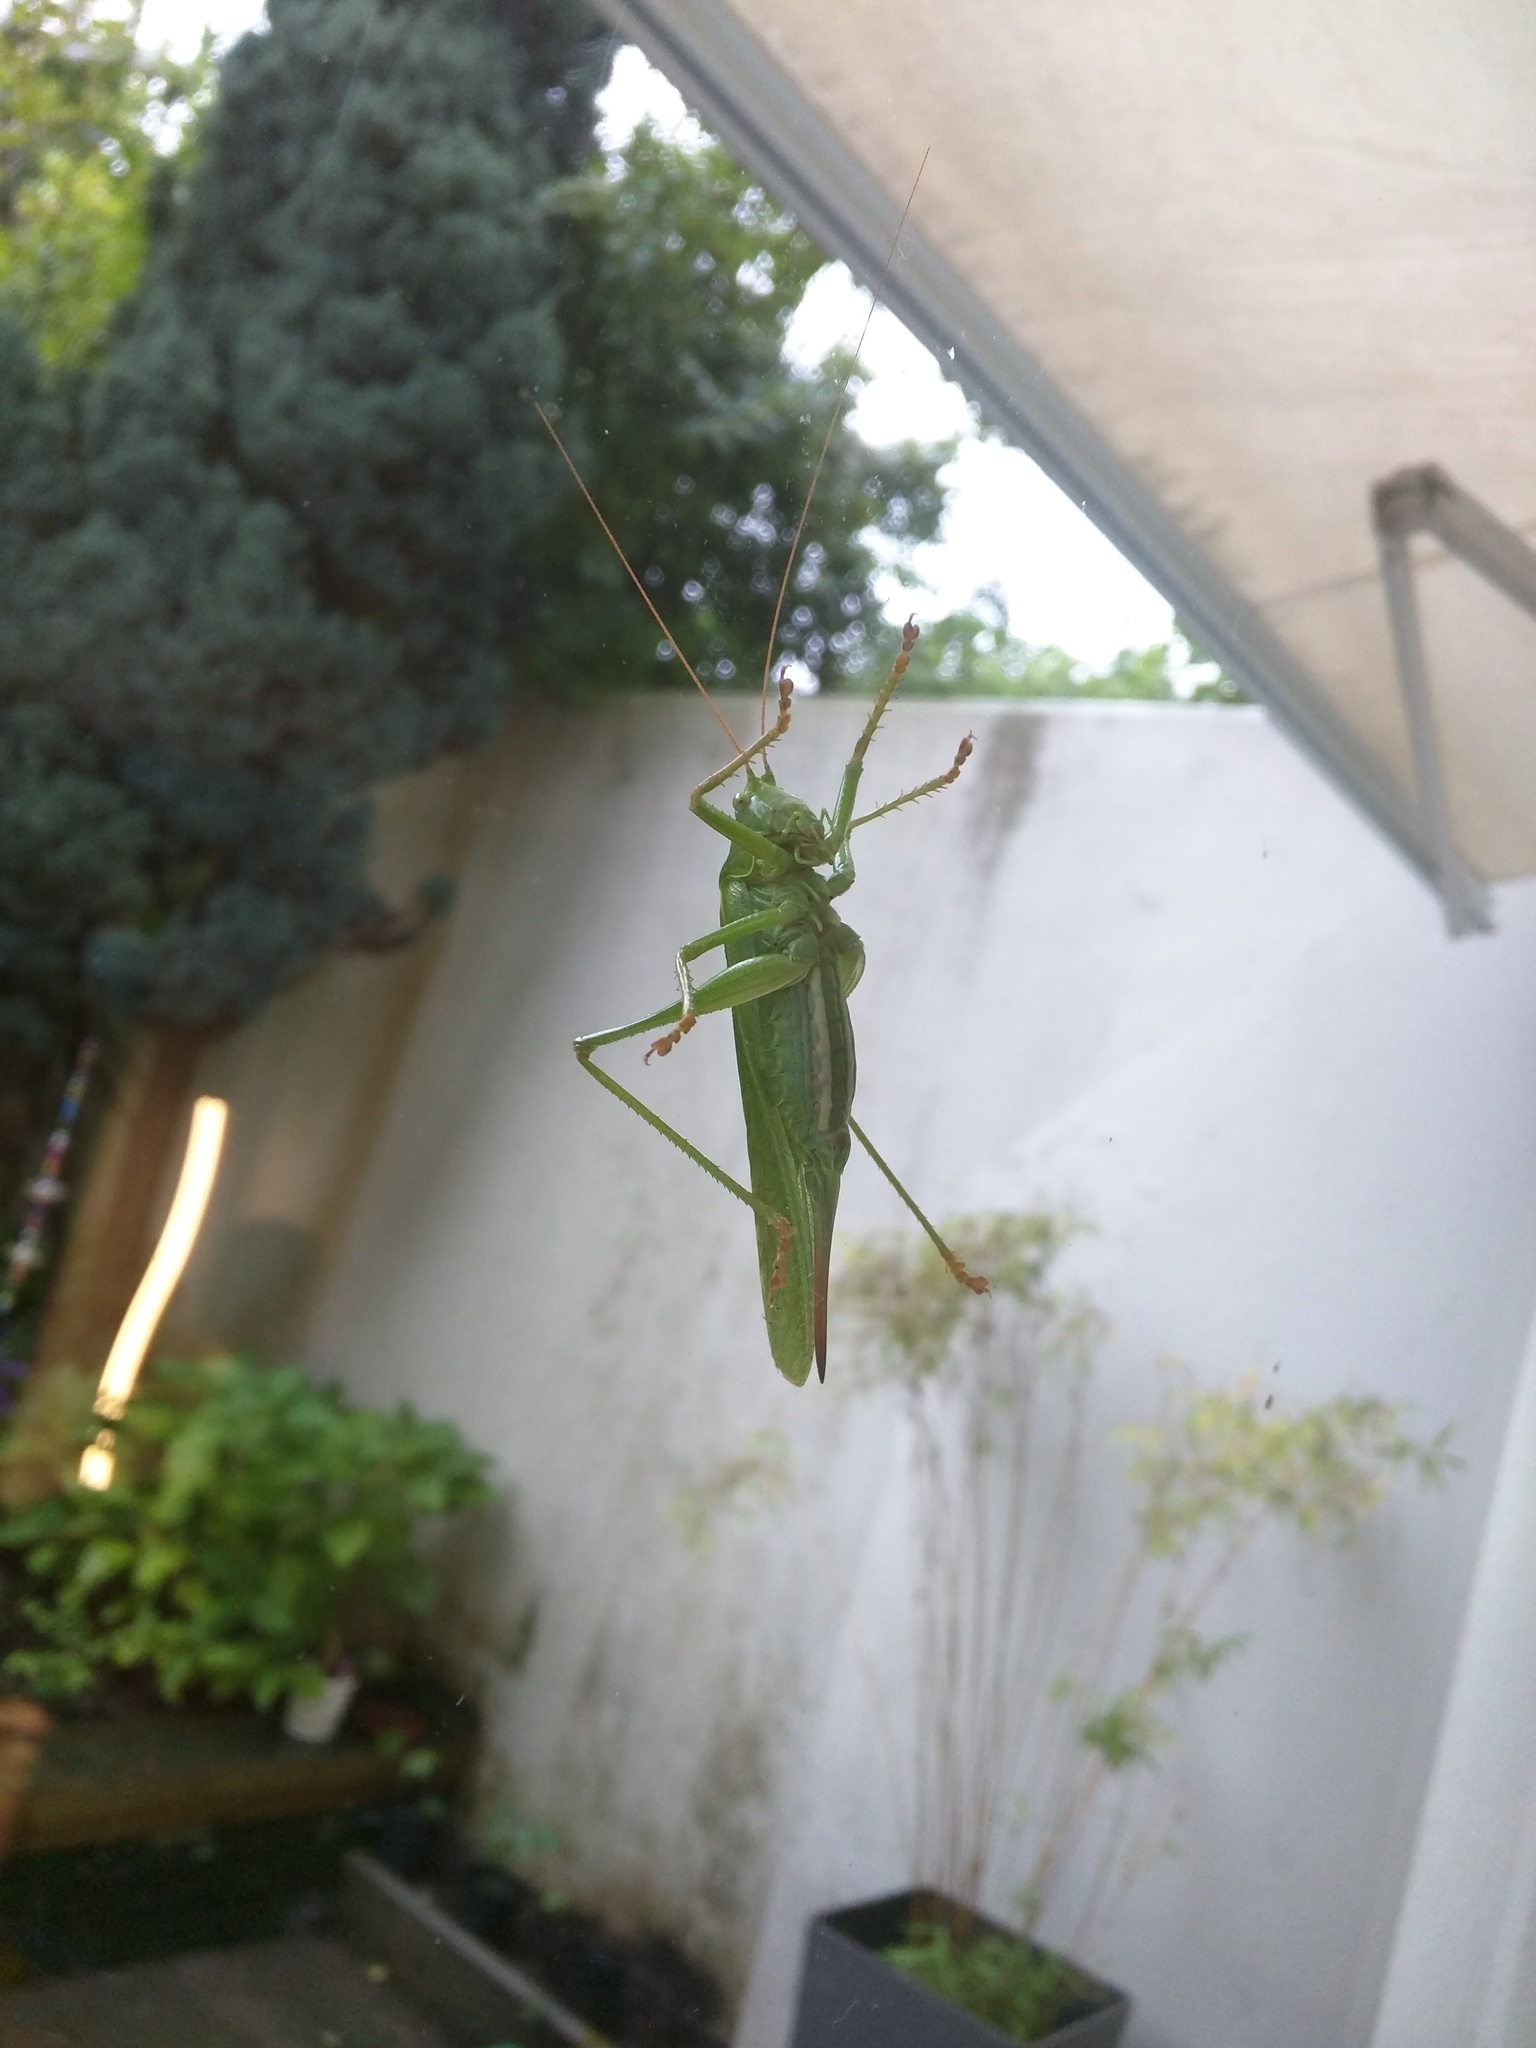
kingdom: Animalia
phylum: Arthropoda
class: Insecta
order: Orthoptera
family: Tettigoniidae
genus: Tettigonia
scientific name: Tettigonia viridissima
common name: Great green bush-cricket
